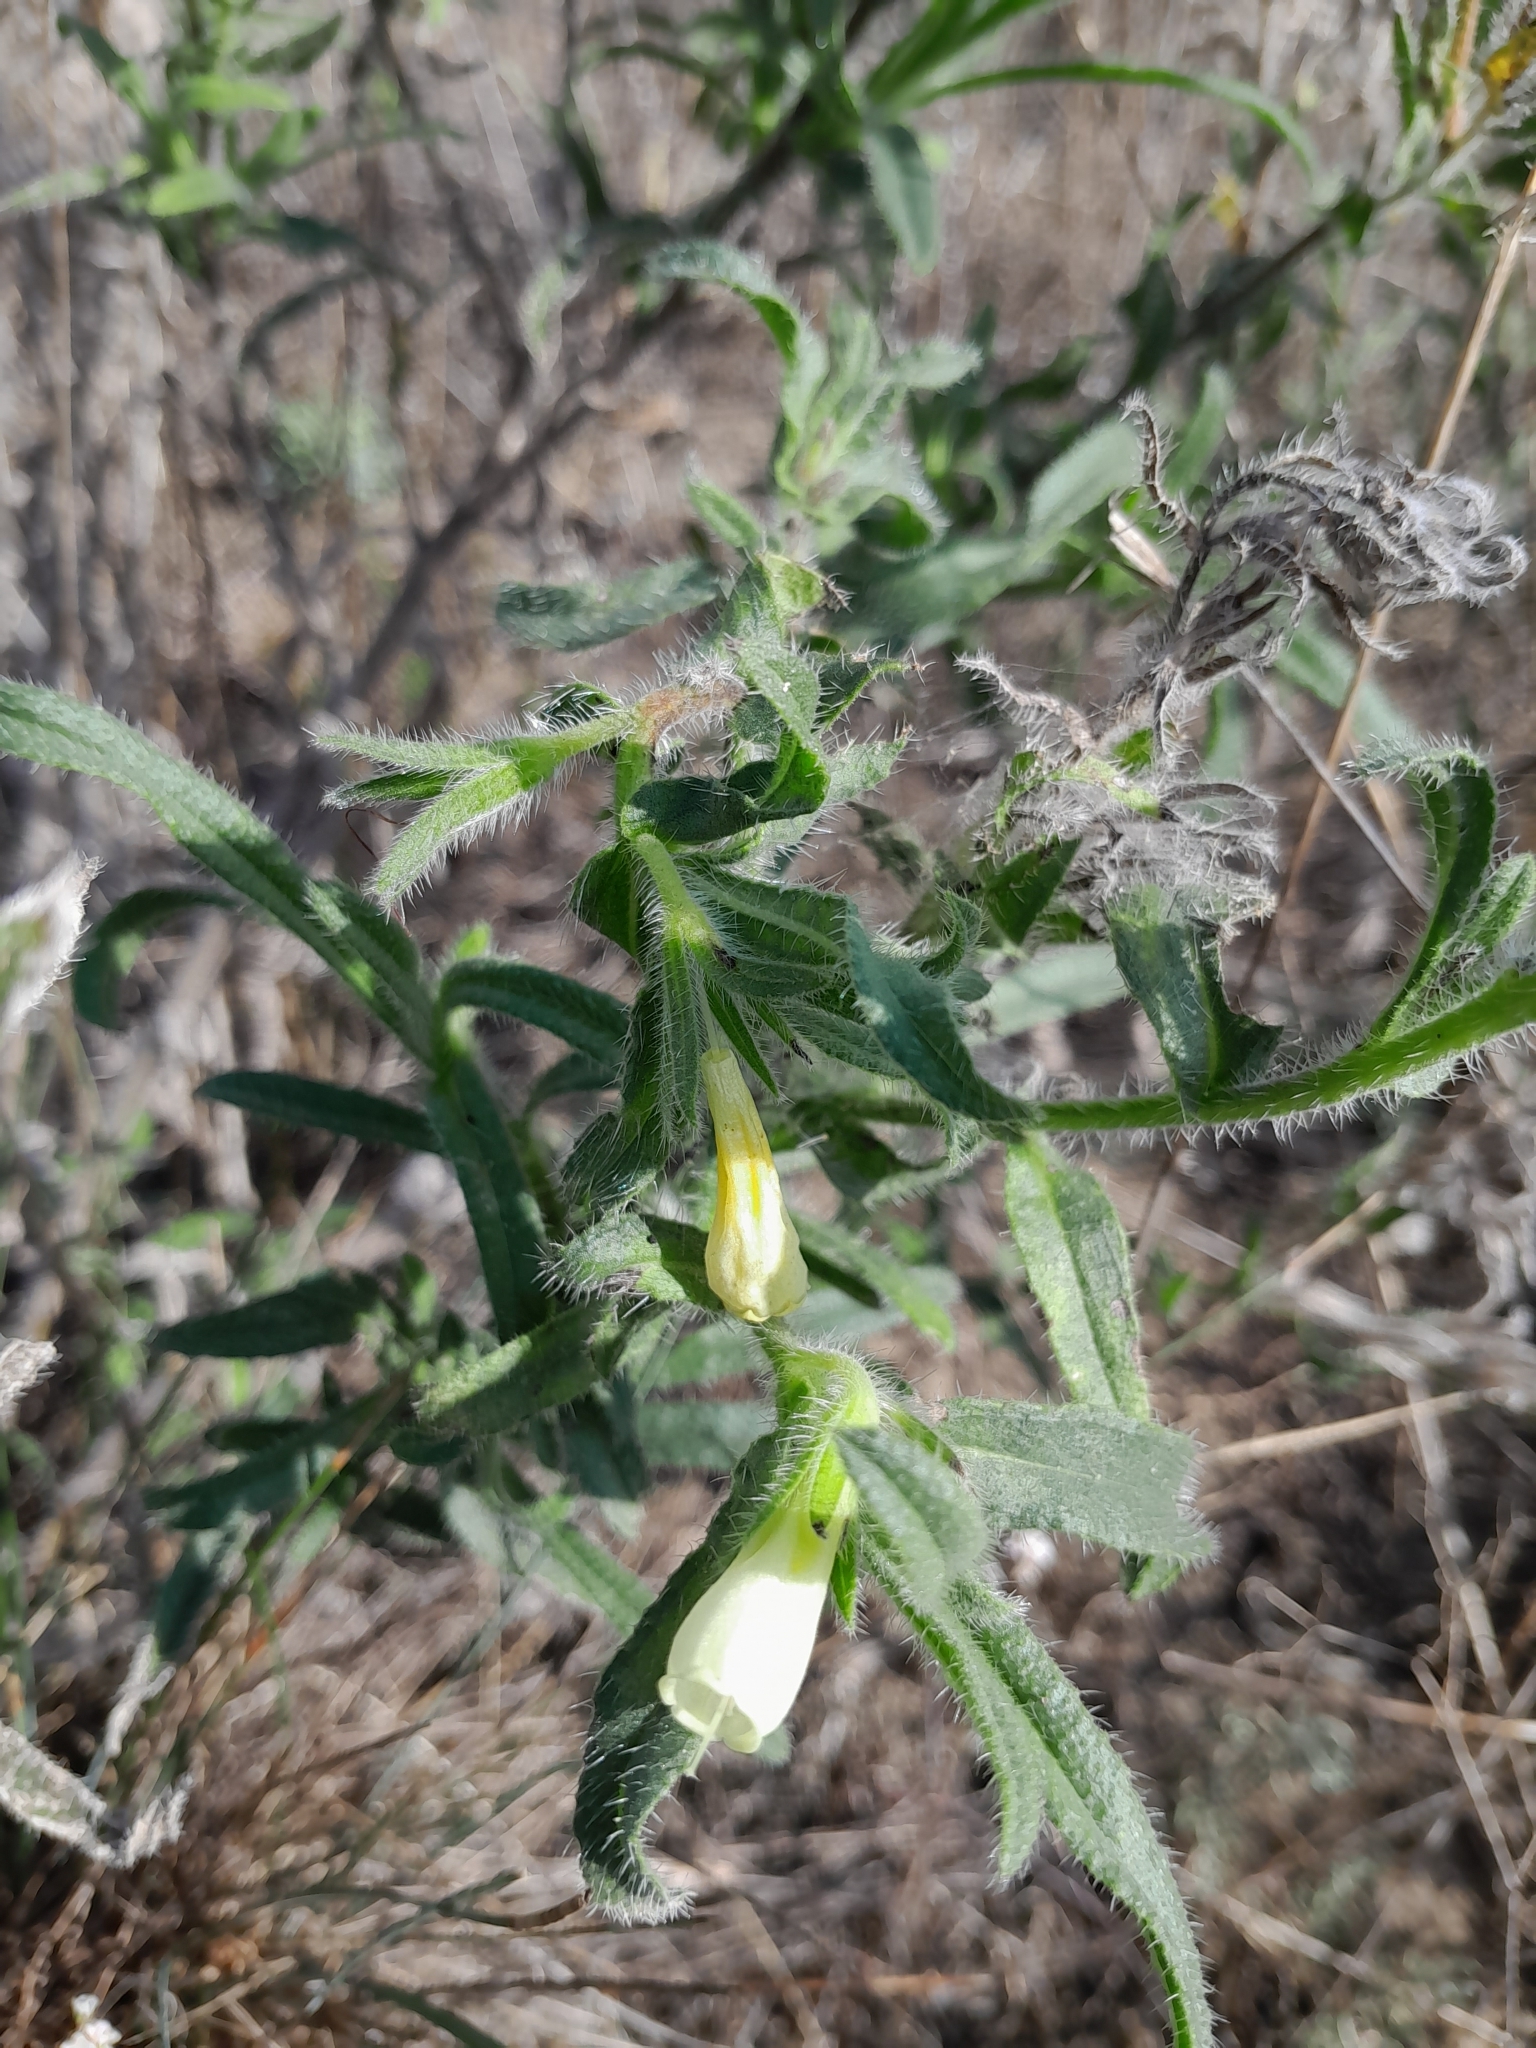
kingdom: Plantae
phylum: Tracheophyta
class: Magnoliopsida
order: Boraginales
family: Boraginaceae
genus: Onosma
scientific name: Onosma arenaria
